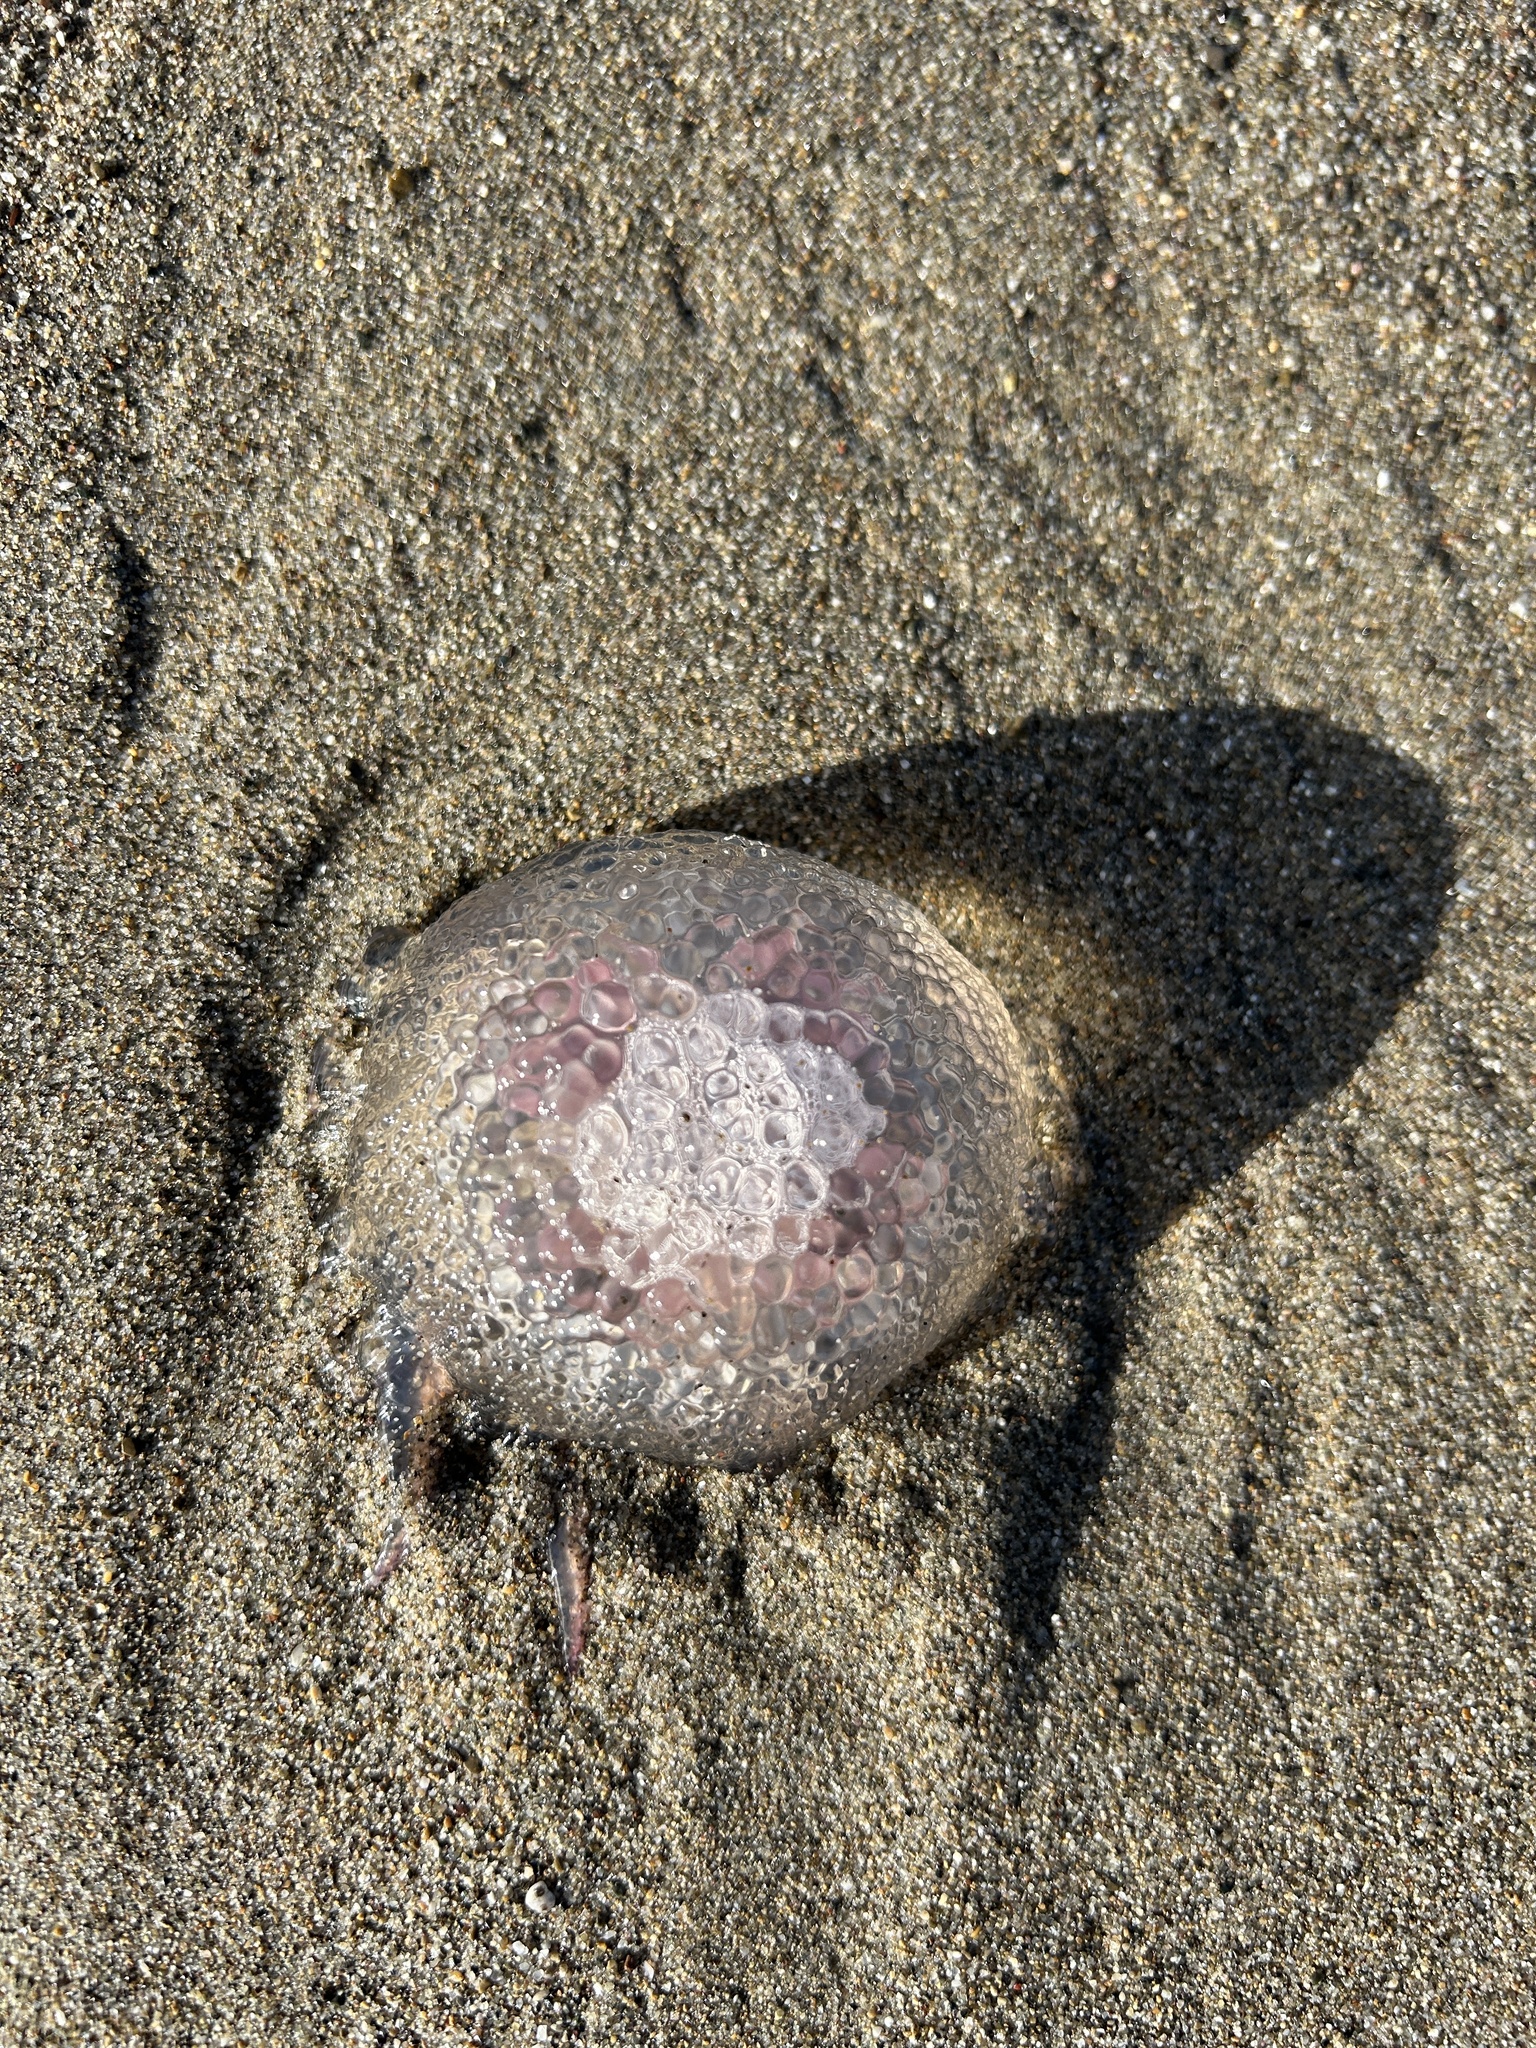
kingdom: Animalia
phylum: Cnidaria
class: Scyphozoa
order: Semaeostomeae
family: Pelagiidae
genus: Pelagia
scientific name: Pelagia noctiluca
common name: Mauve stinger
